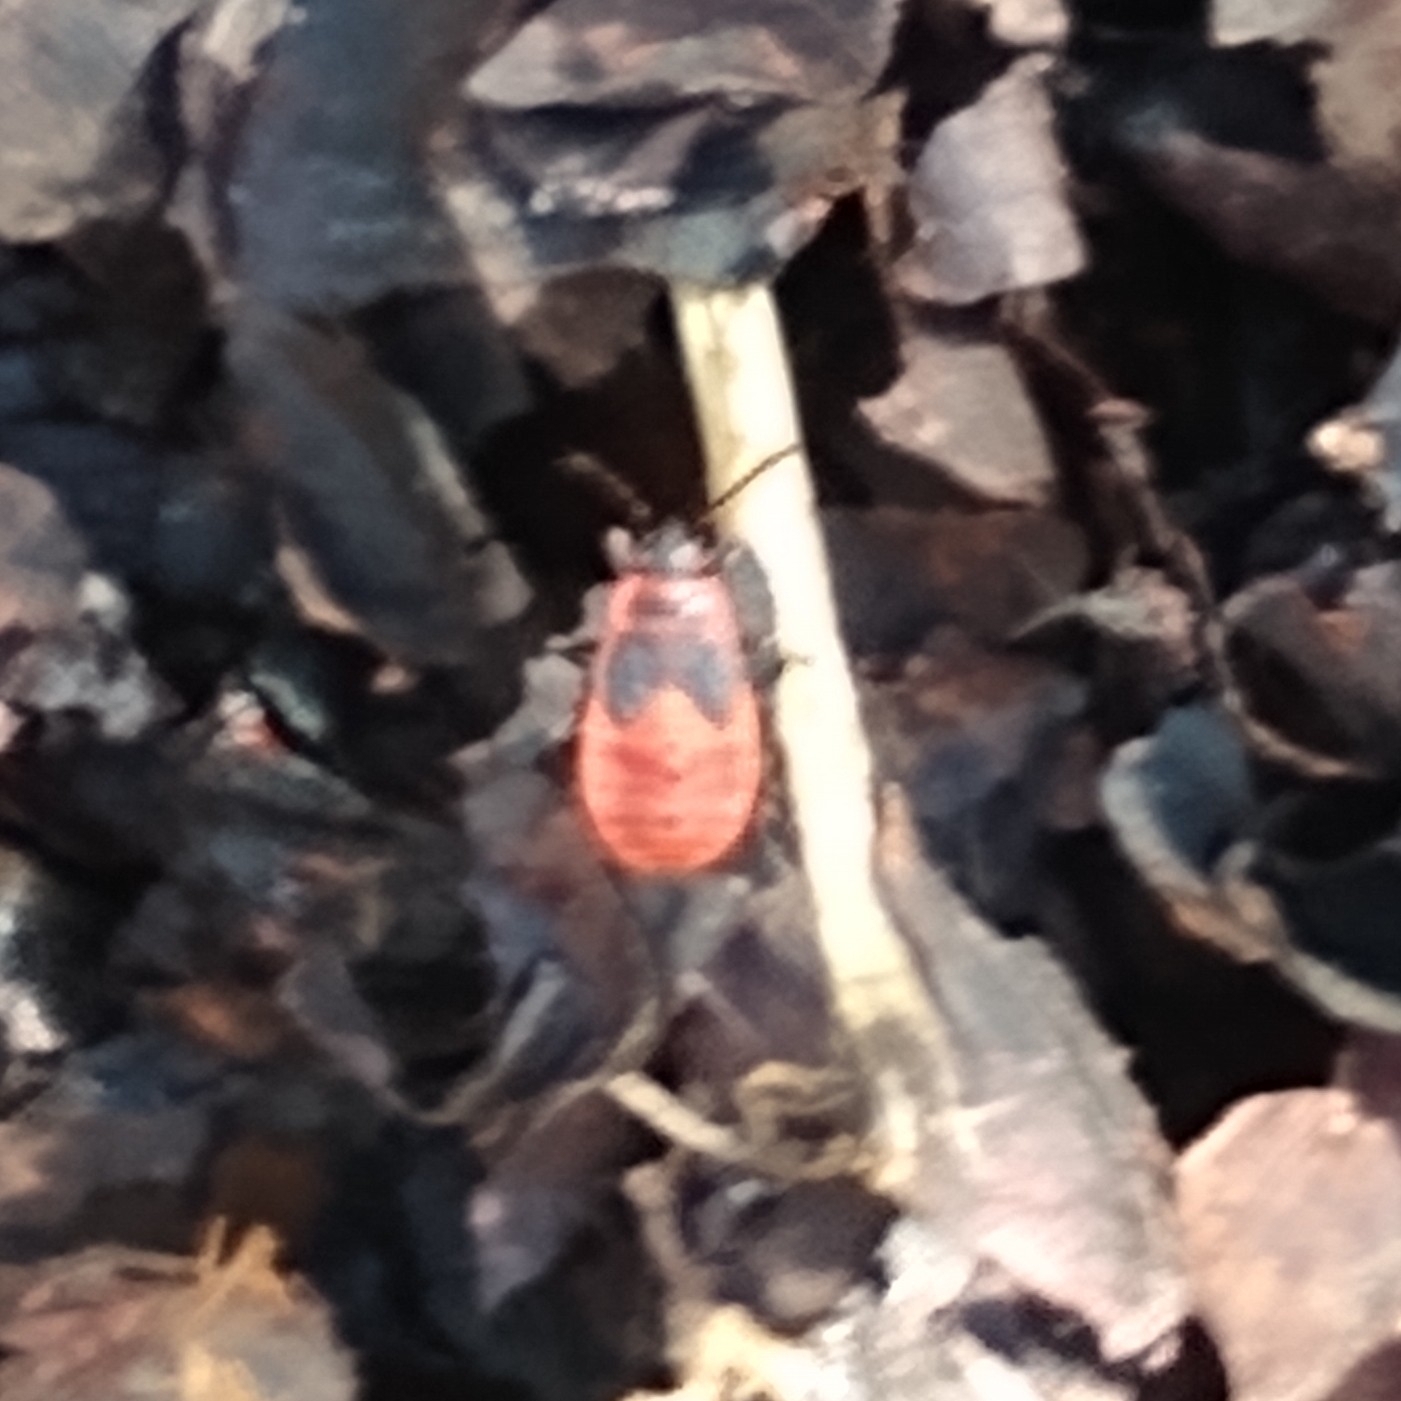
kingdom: Animalia
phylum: Arthropoda
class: Insecta
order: Hemiptera
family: Pyrrhocoridae
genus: Pyrrhocoris
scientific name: Pyrrhocoris apterus
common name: Firebug
